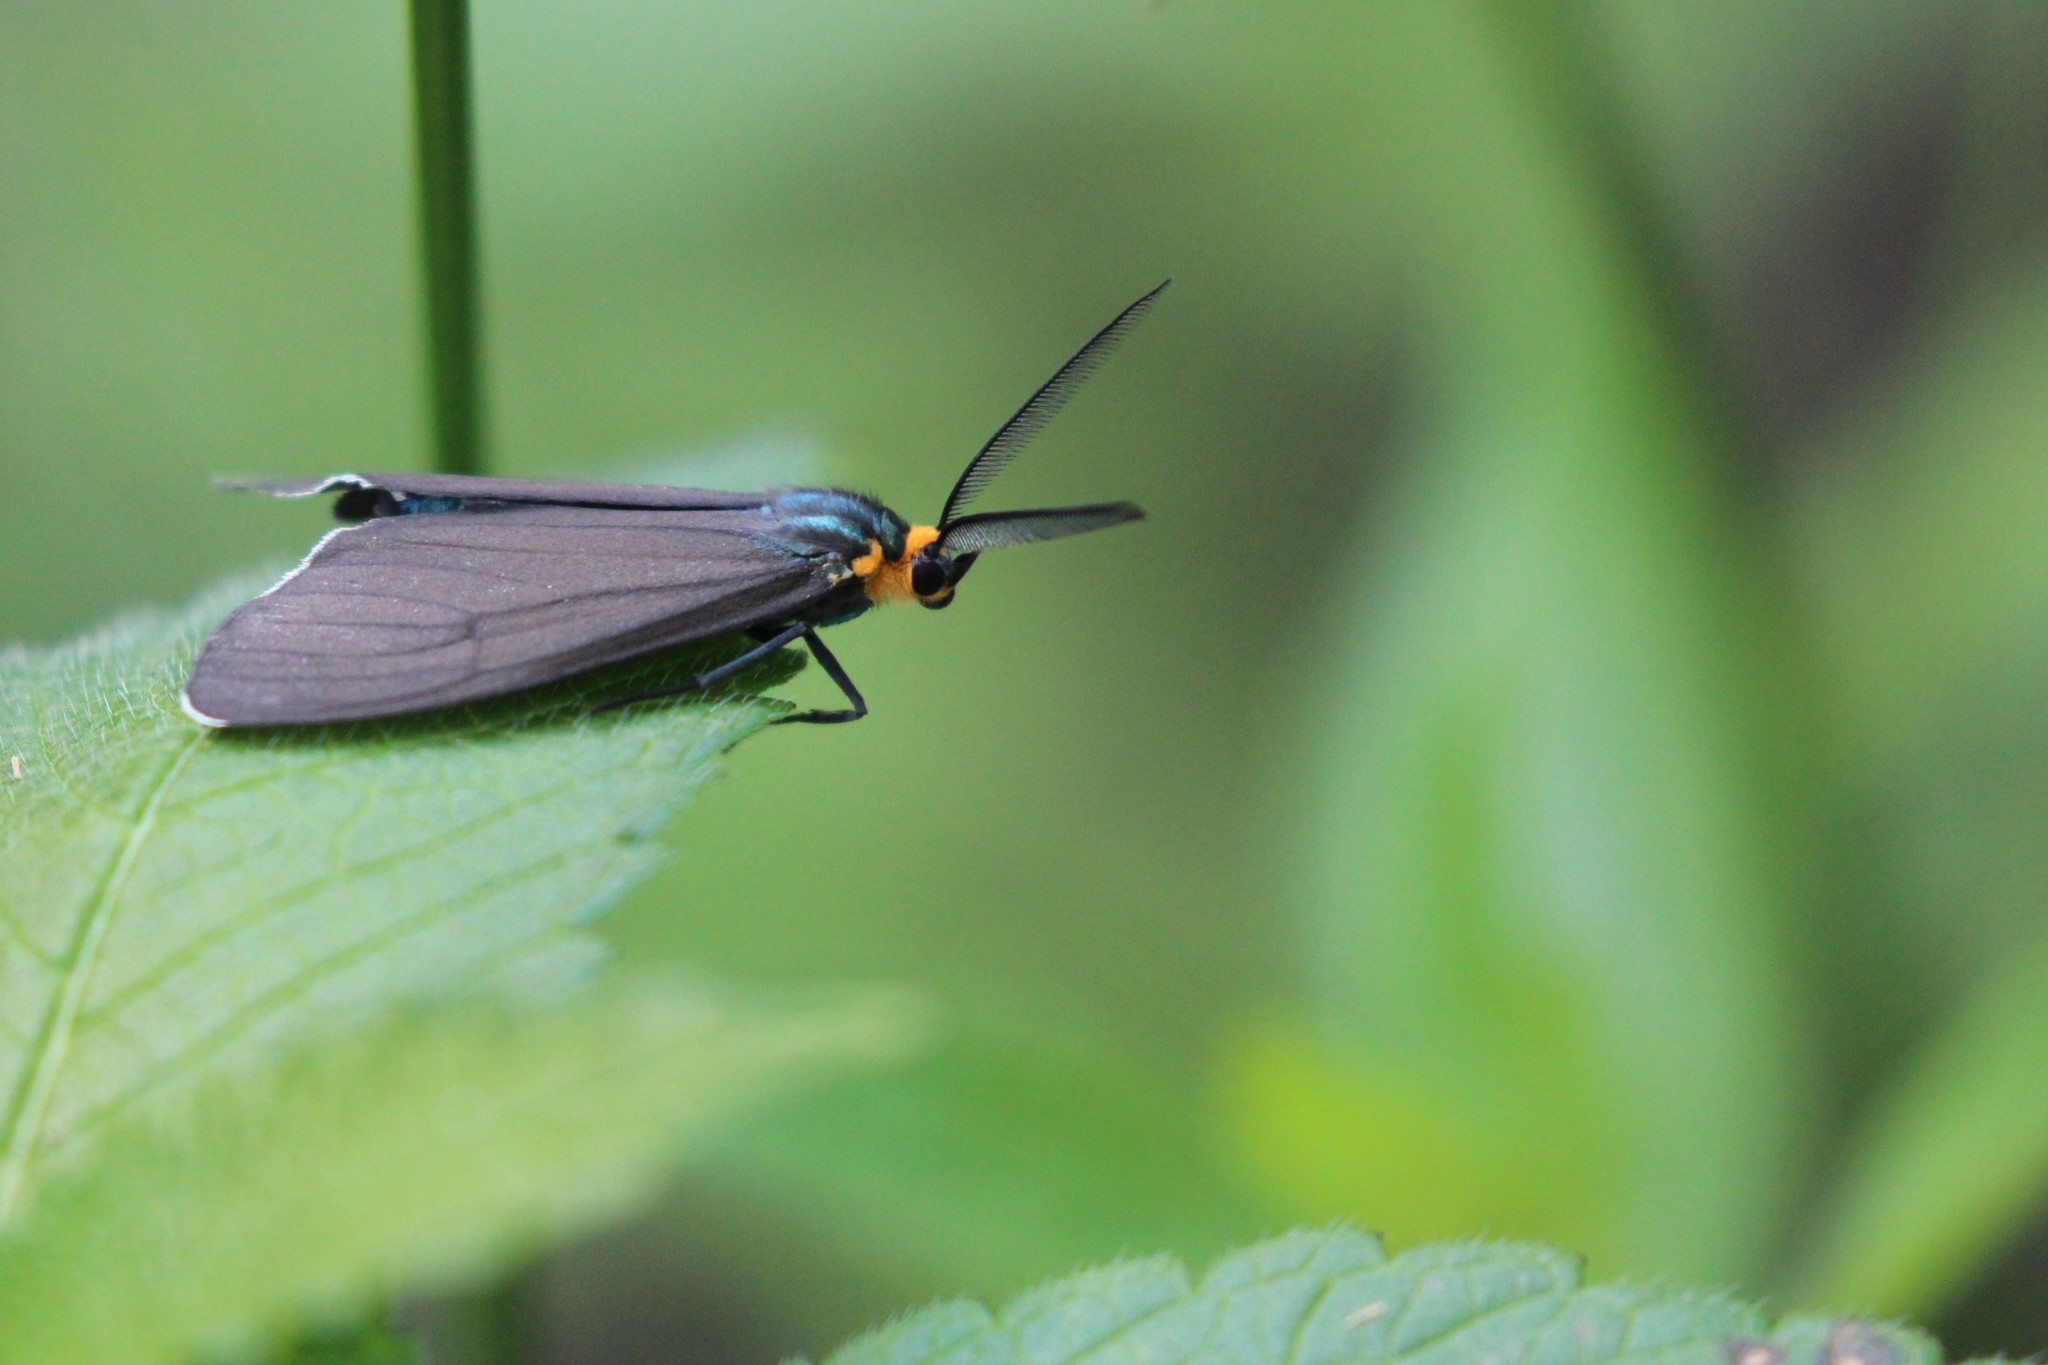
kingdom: Animalia
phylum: Arthropoda
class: Insecta
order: Lepidoptera
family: Erebidae
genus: Ctenucha
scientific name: Ctenucha virginica
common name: Virginia ctenucha moth
